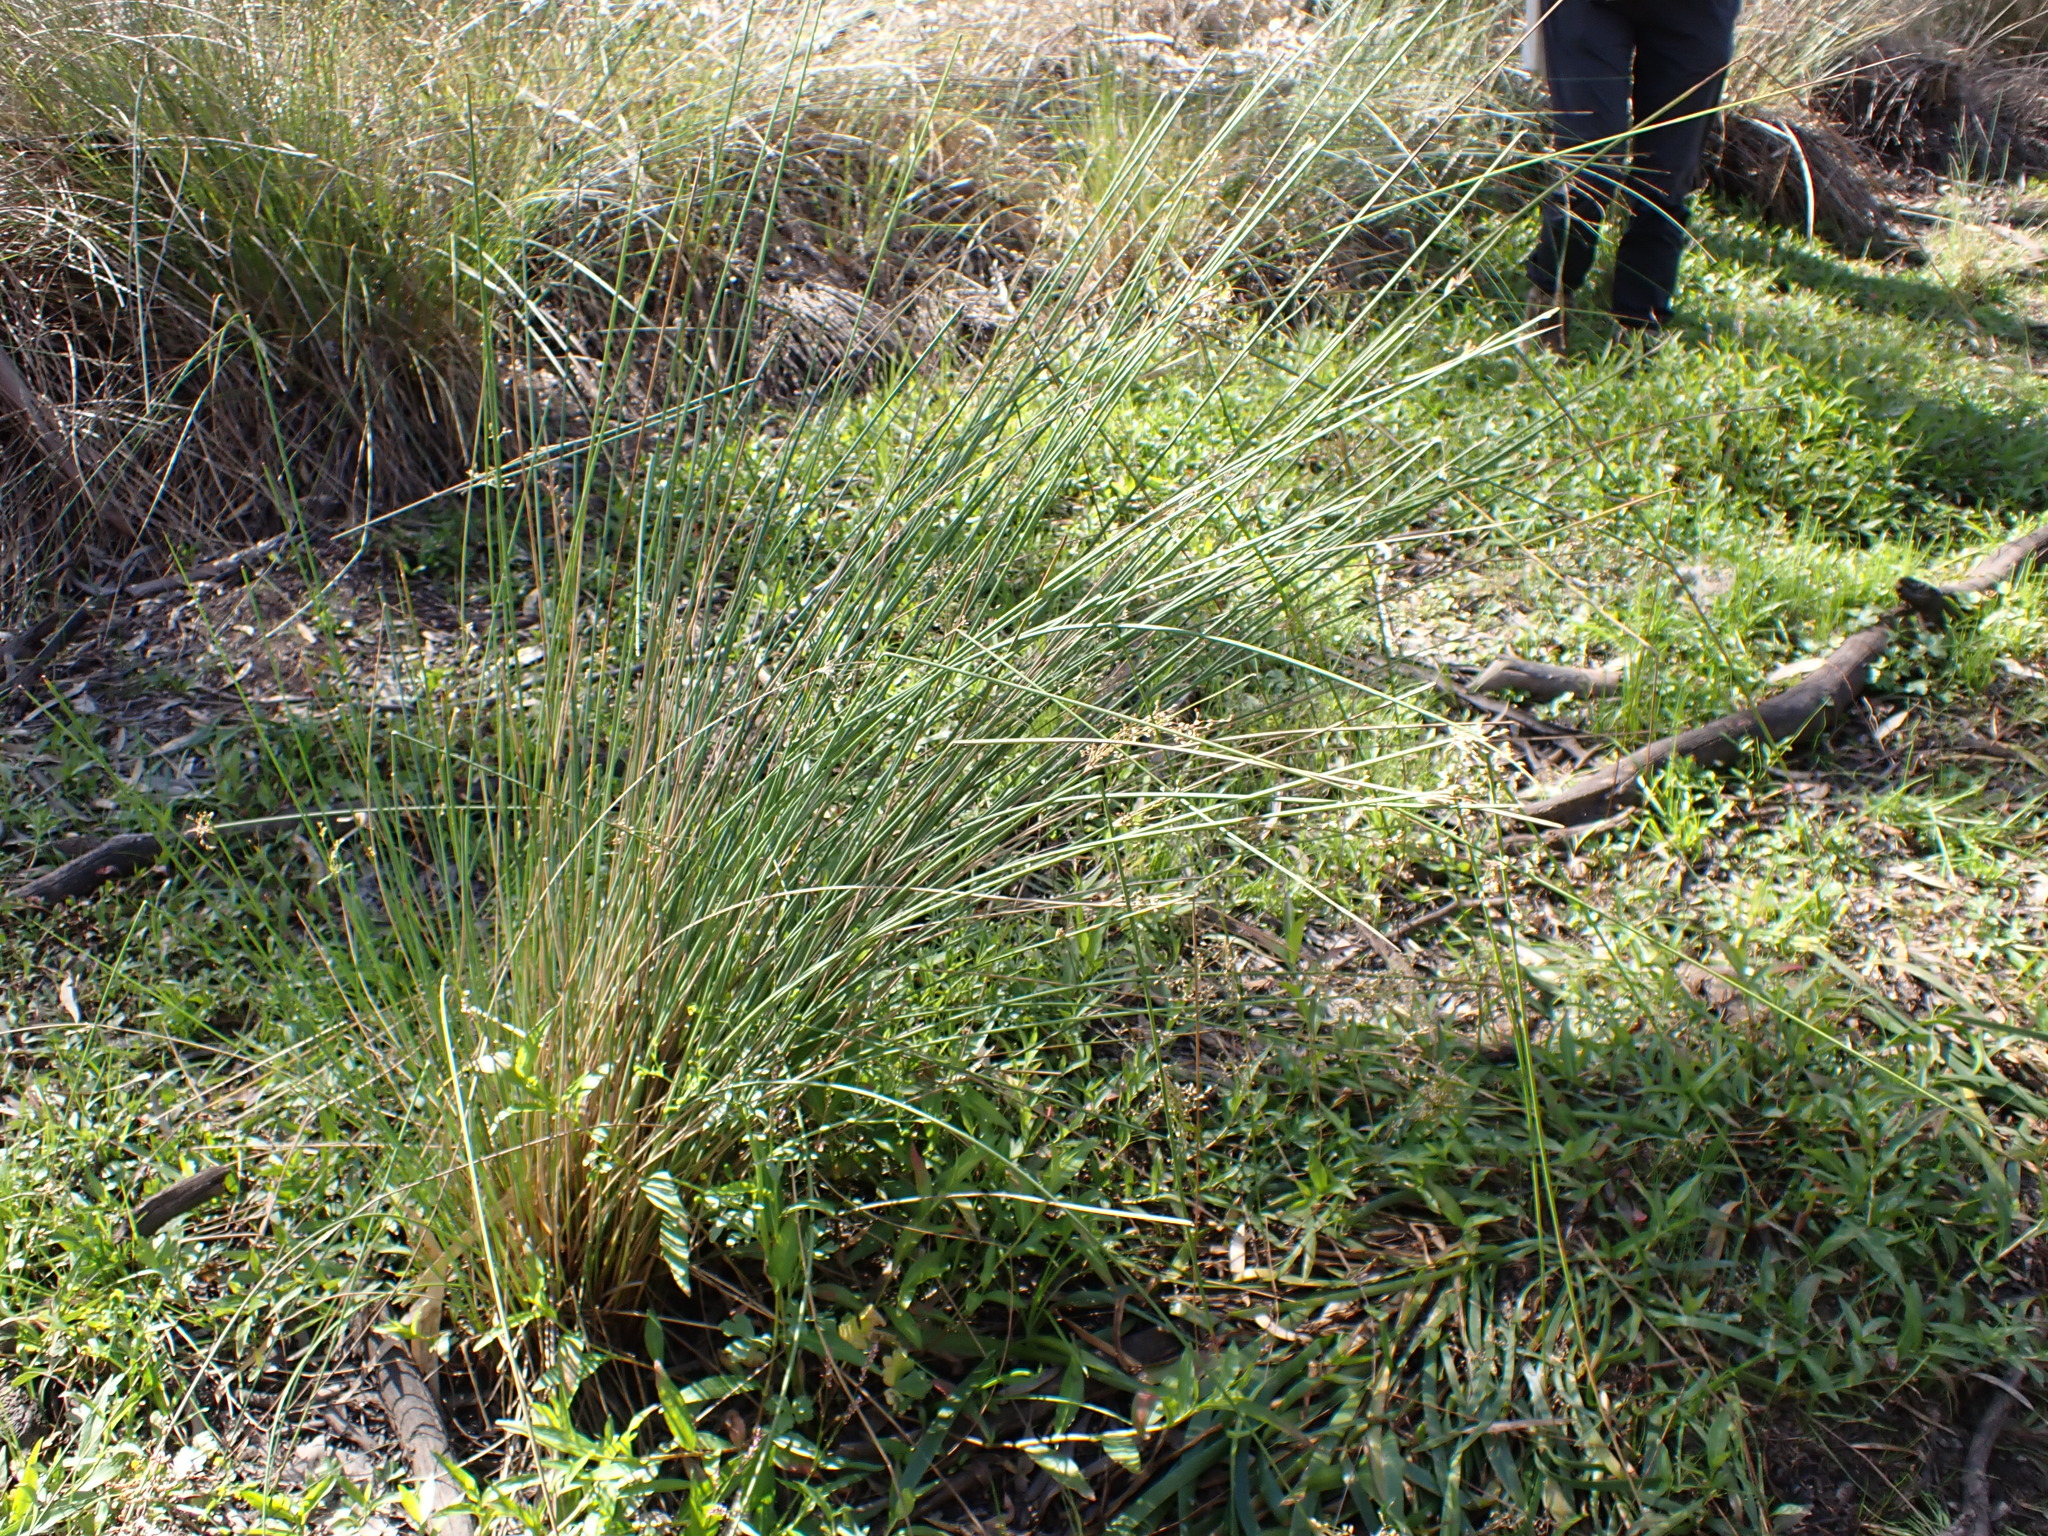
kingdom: Plantae
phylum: Tracheophyta
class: Liliopsida
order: Poales
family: Juncaceae
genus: Juncus
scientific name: Juncus aridicola
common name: Tussock rush
